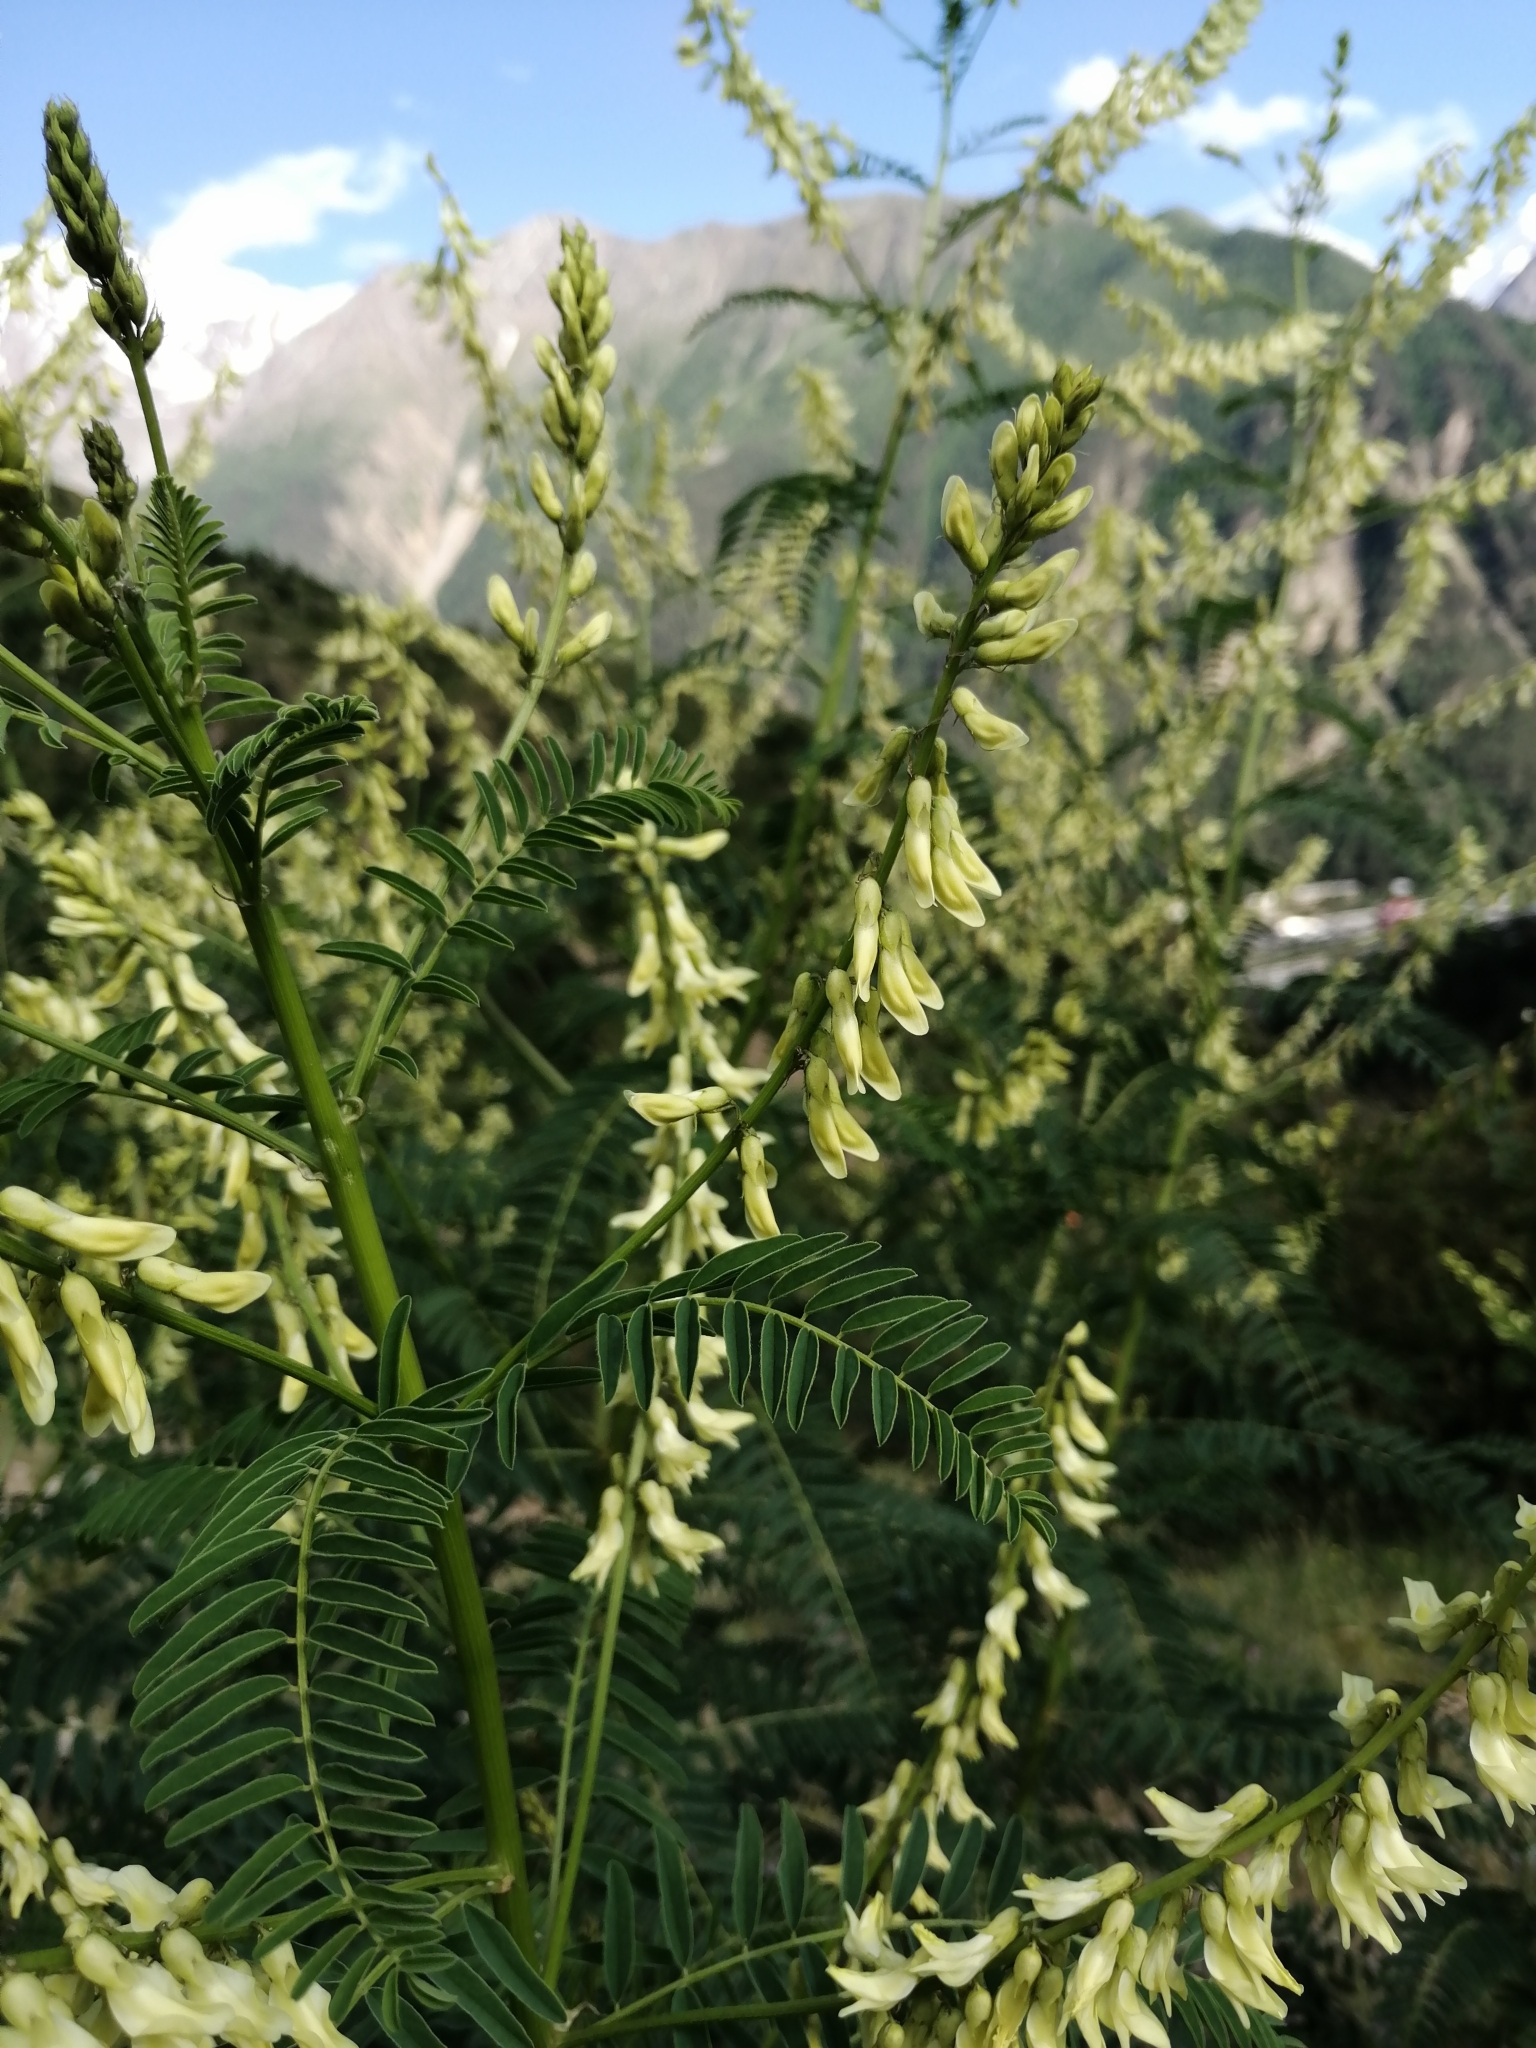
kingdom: Plantae
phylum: Tracheophyta
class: Magnoliopsida
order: Fabales
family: Fabaceae
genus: Astragalus
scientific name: Astragalus galegiformis
